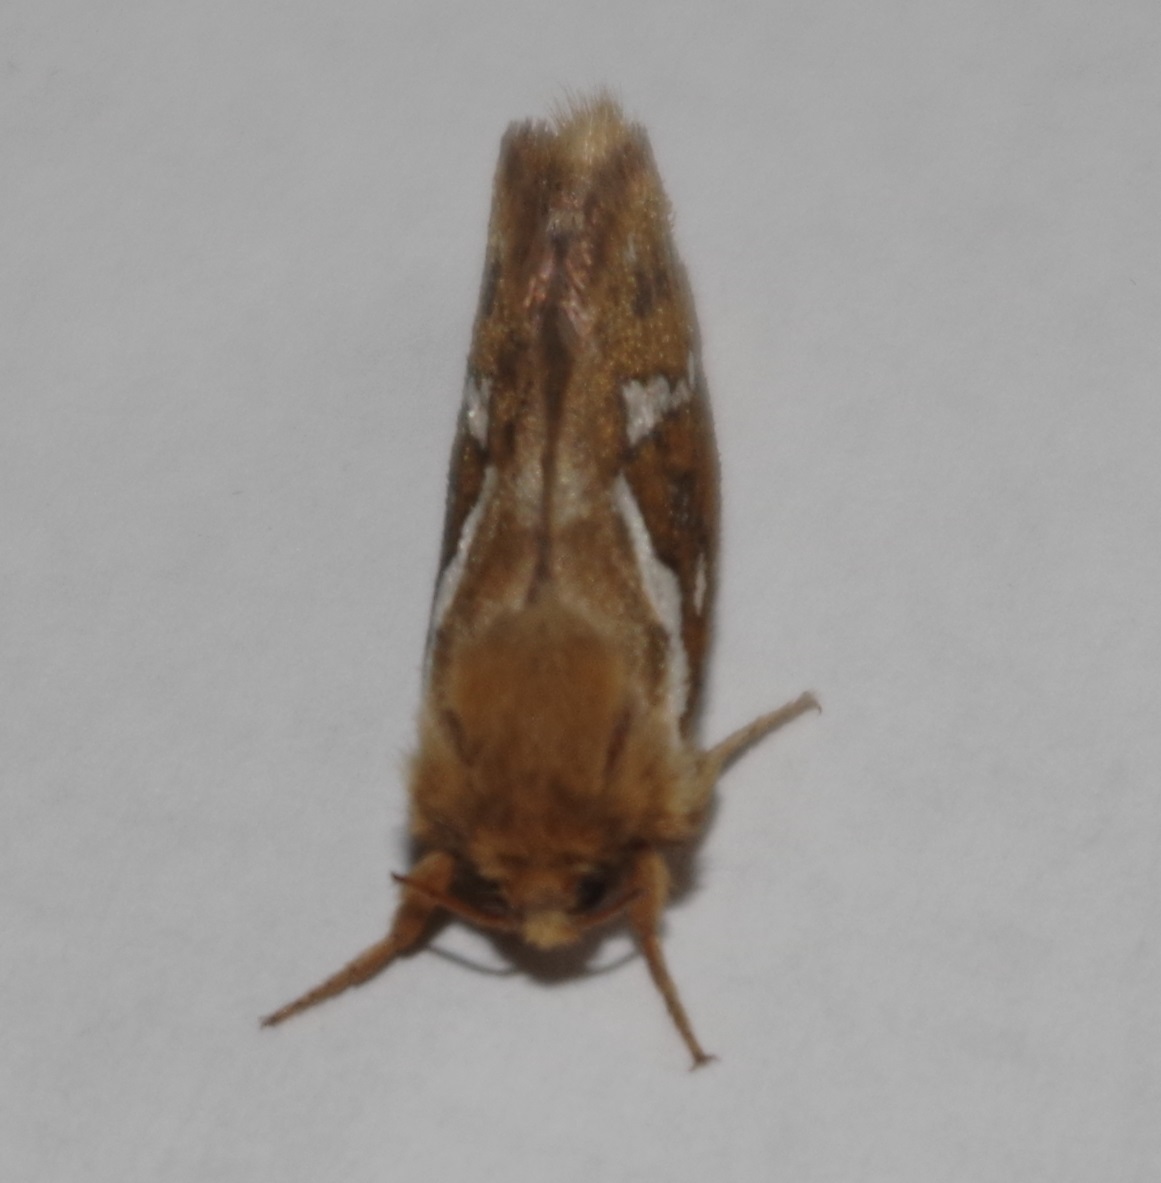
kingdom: Animalia
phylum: Arthropoda
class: Insecta
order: Lepidoptera
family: Hepialidae
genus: Korscheltellus
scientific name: Korscheltellus lupulina
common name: Common swift
